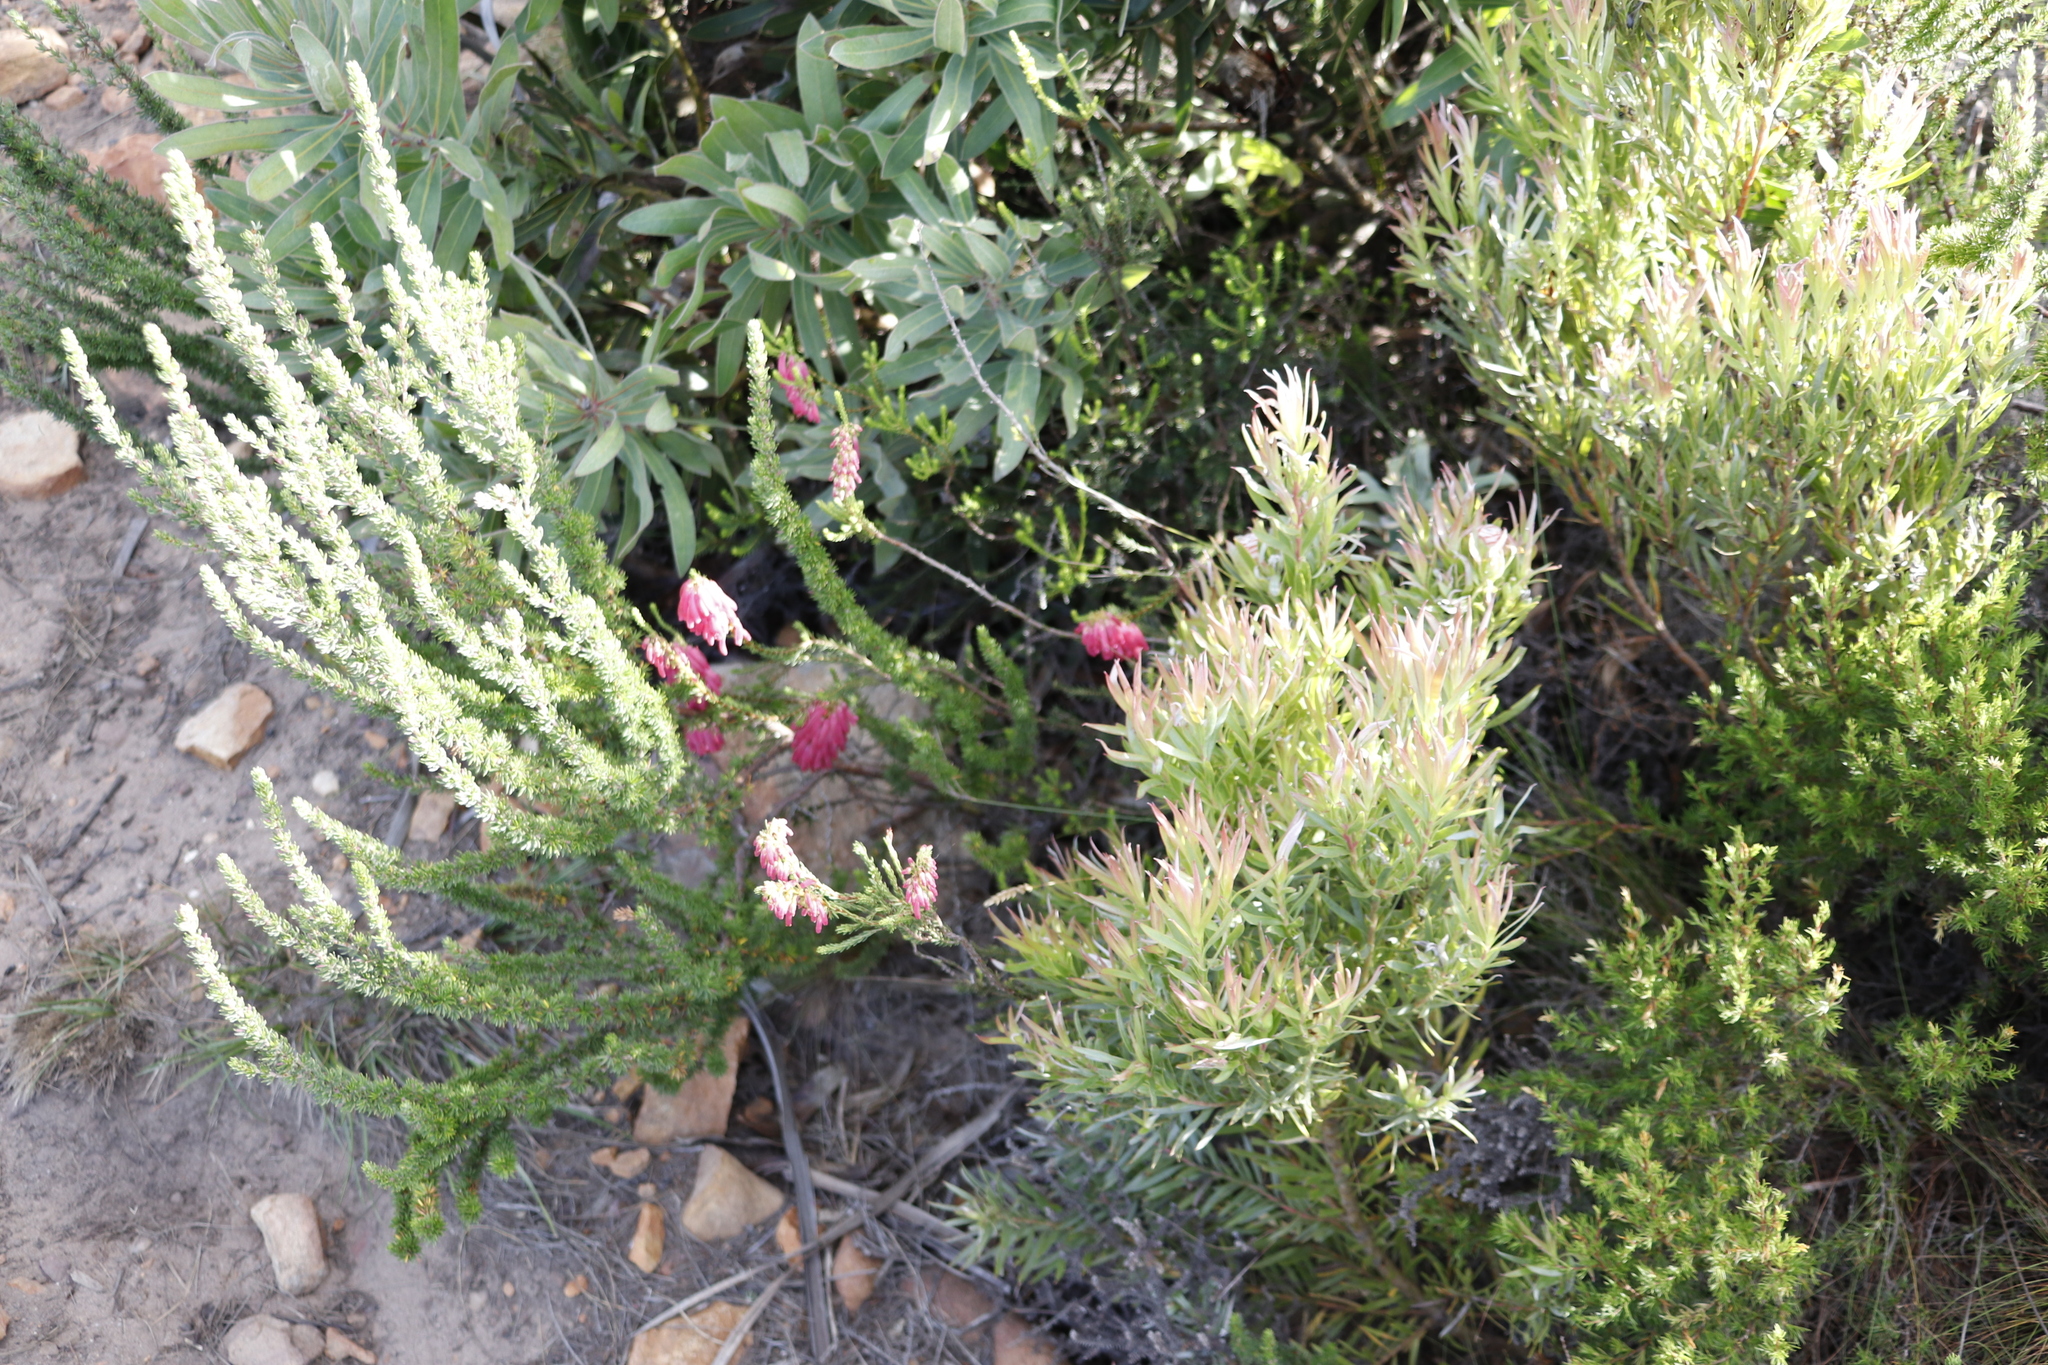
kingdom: Plantae
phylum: Tracheophyta
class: Magnoliopsida
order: Proteales
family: Proteaceae
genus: Leucadendron
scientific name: Leucadendron xanthoconus
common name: Sickle-leaf conebush
